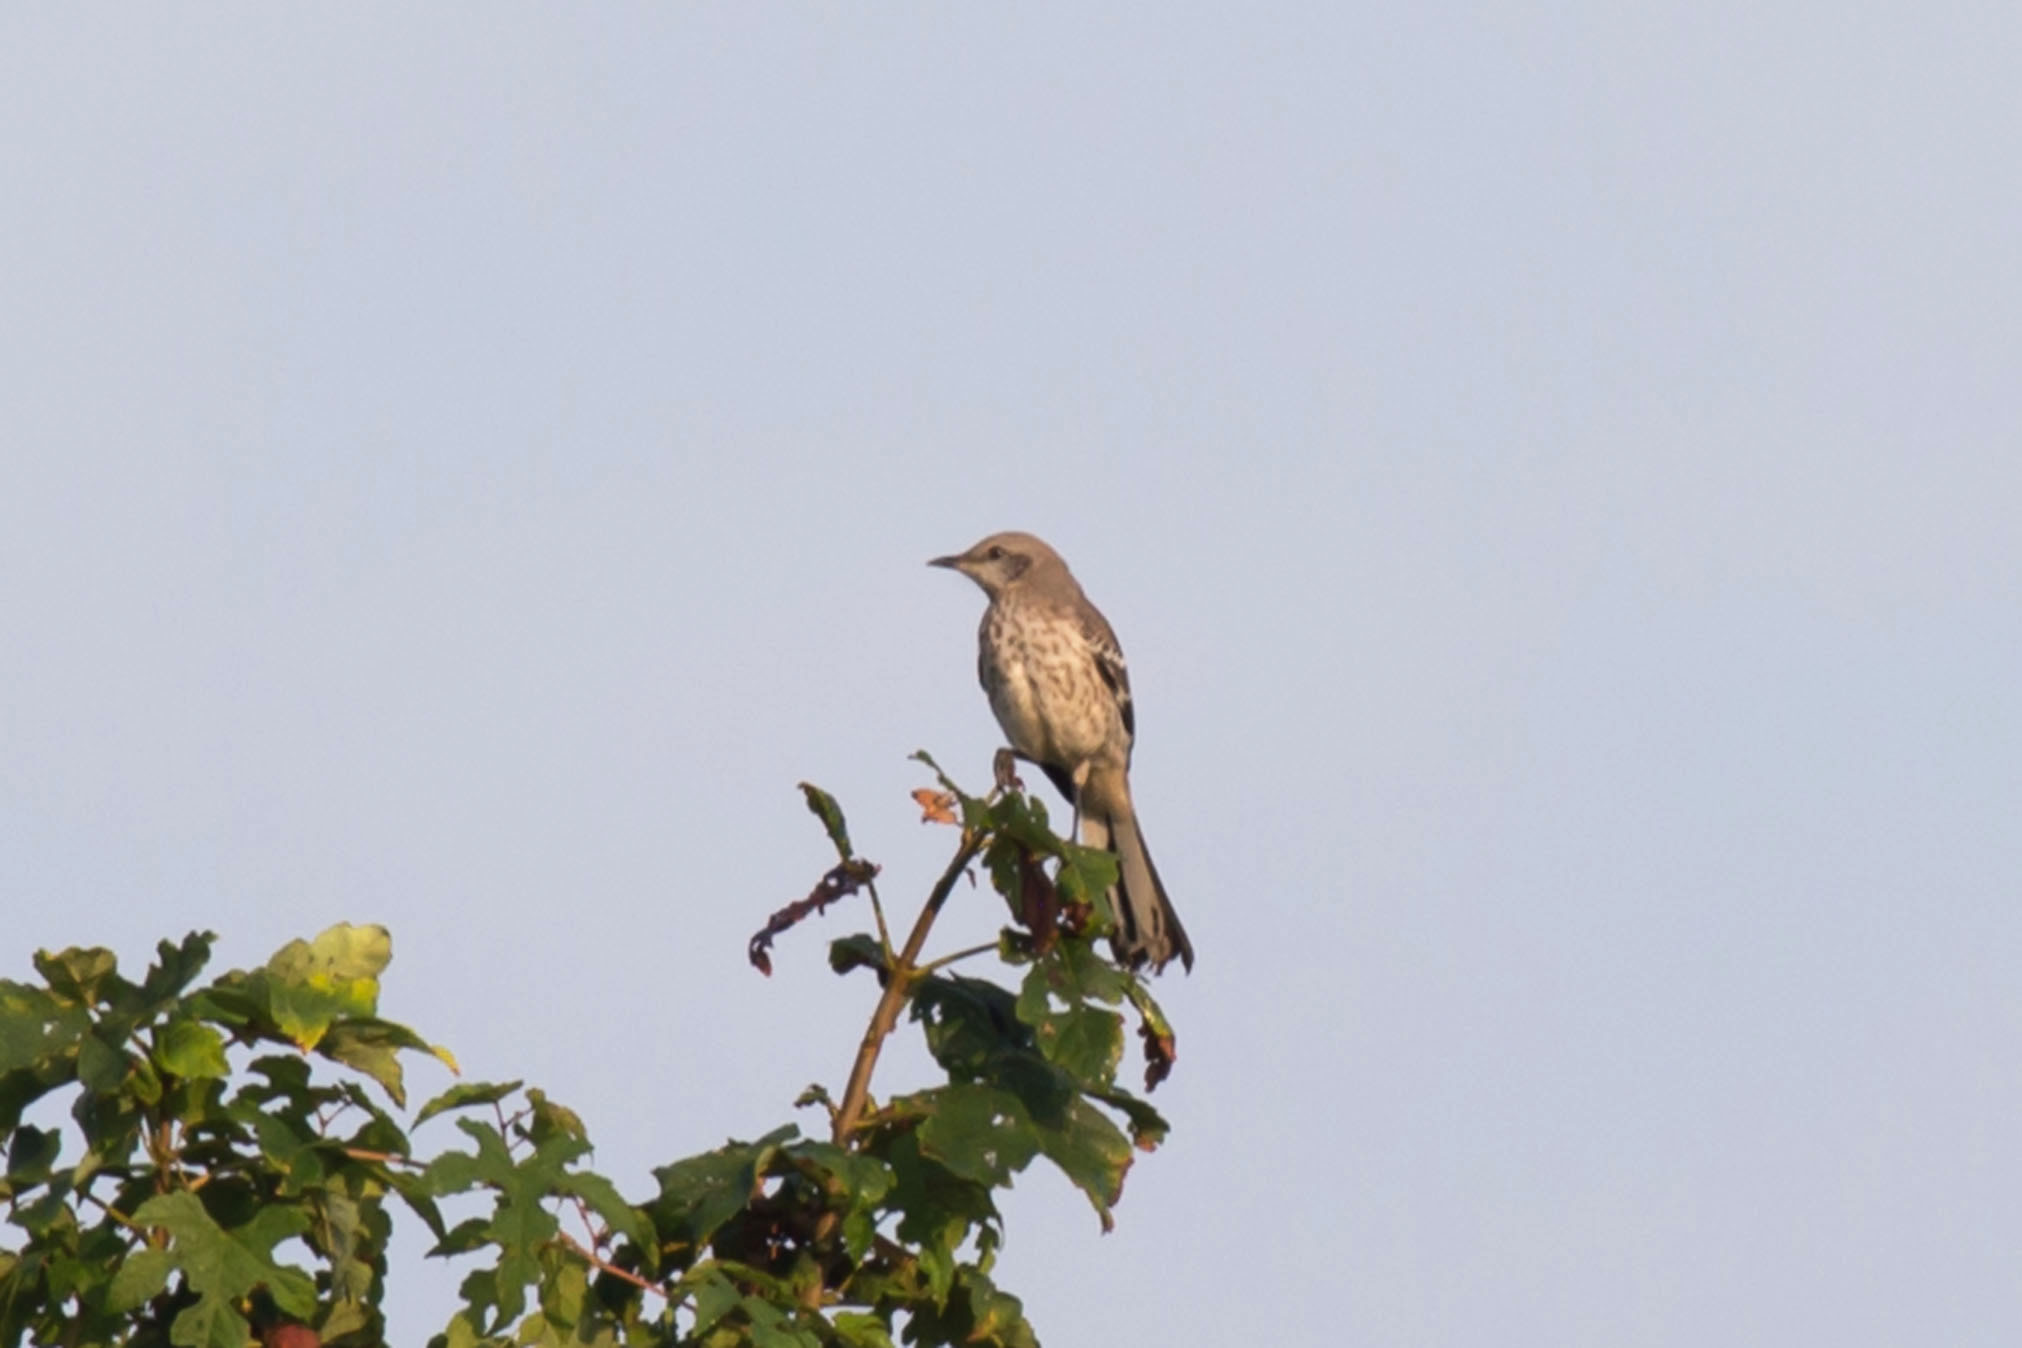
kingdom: Animalia
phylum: Chordata
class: Aves
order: Passeriformes
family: Mimidae
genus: Mimus
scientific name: Mimus polyglottos
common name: Northern mockingbird
